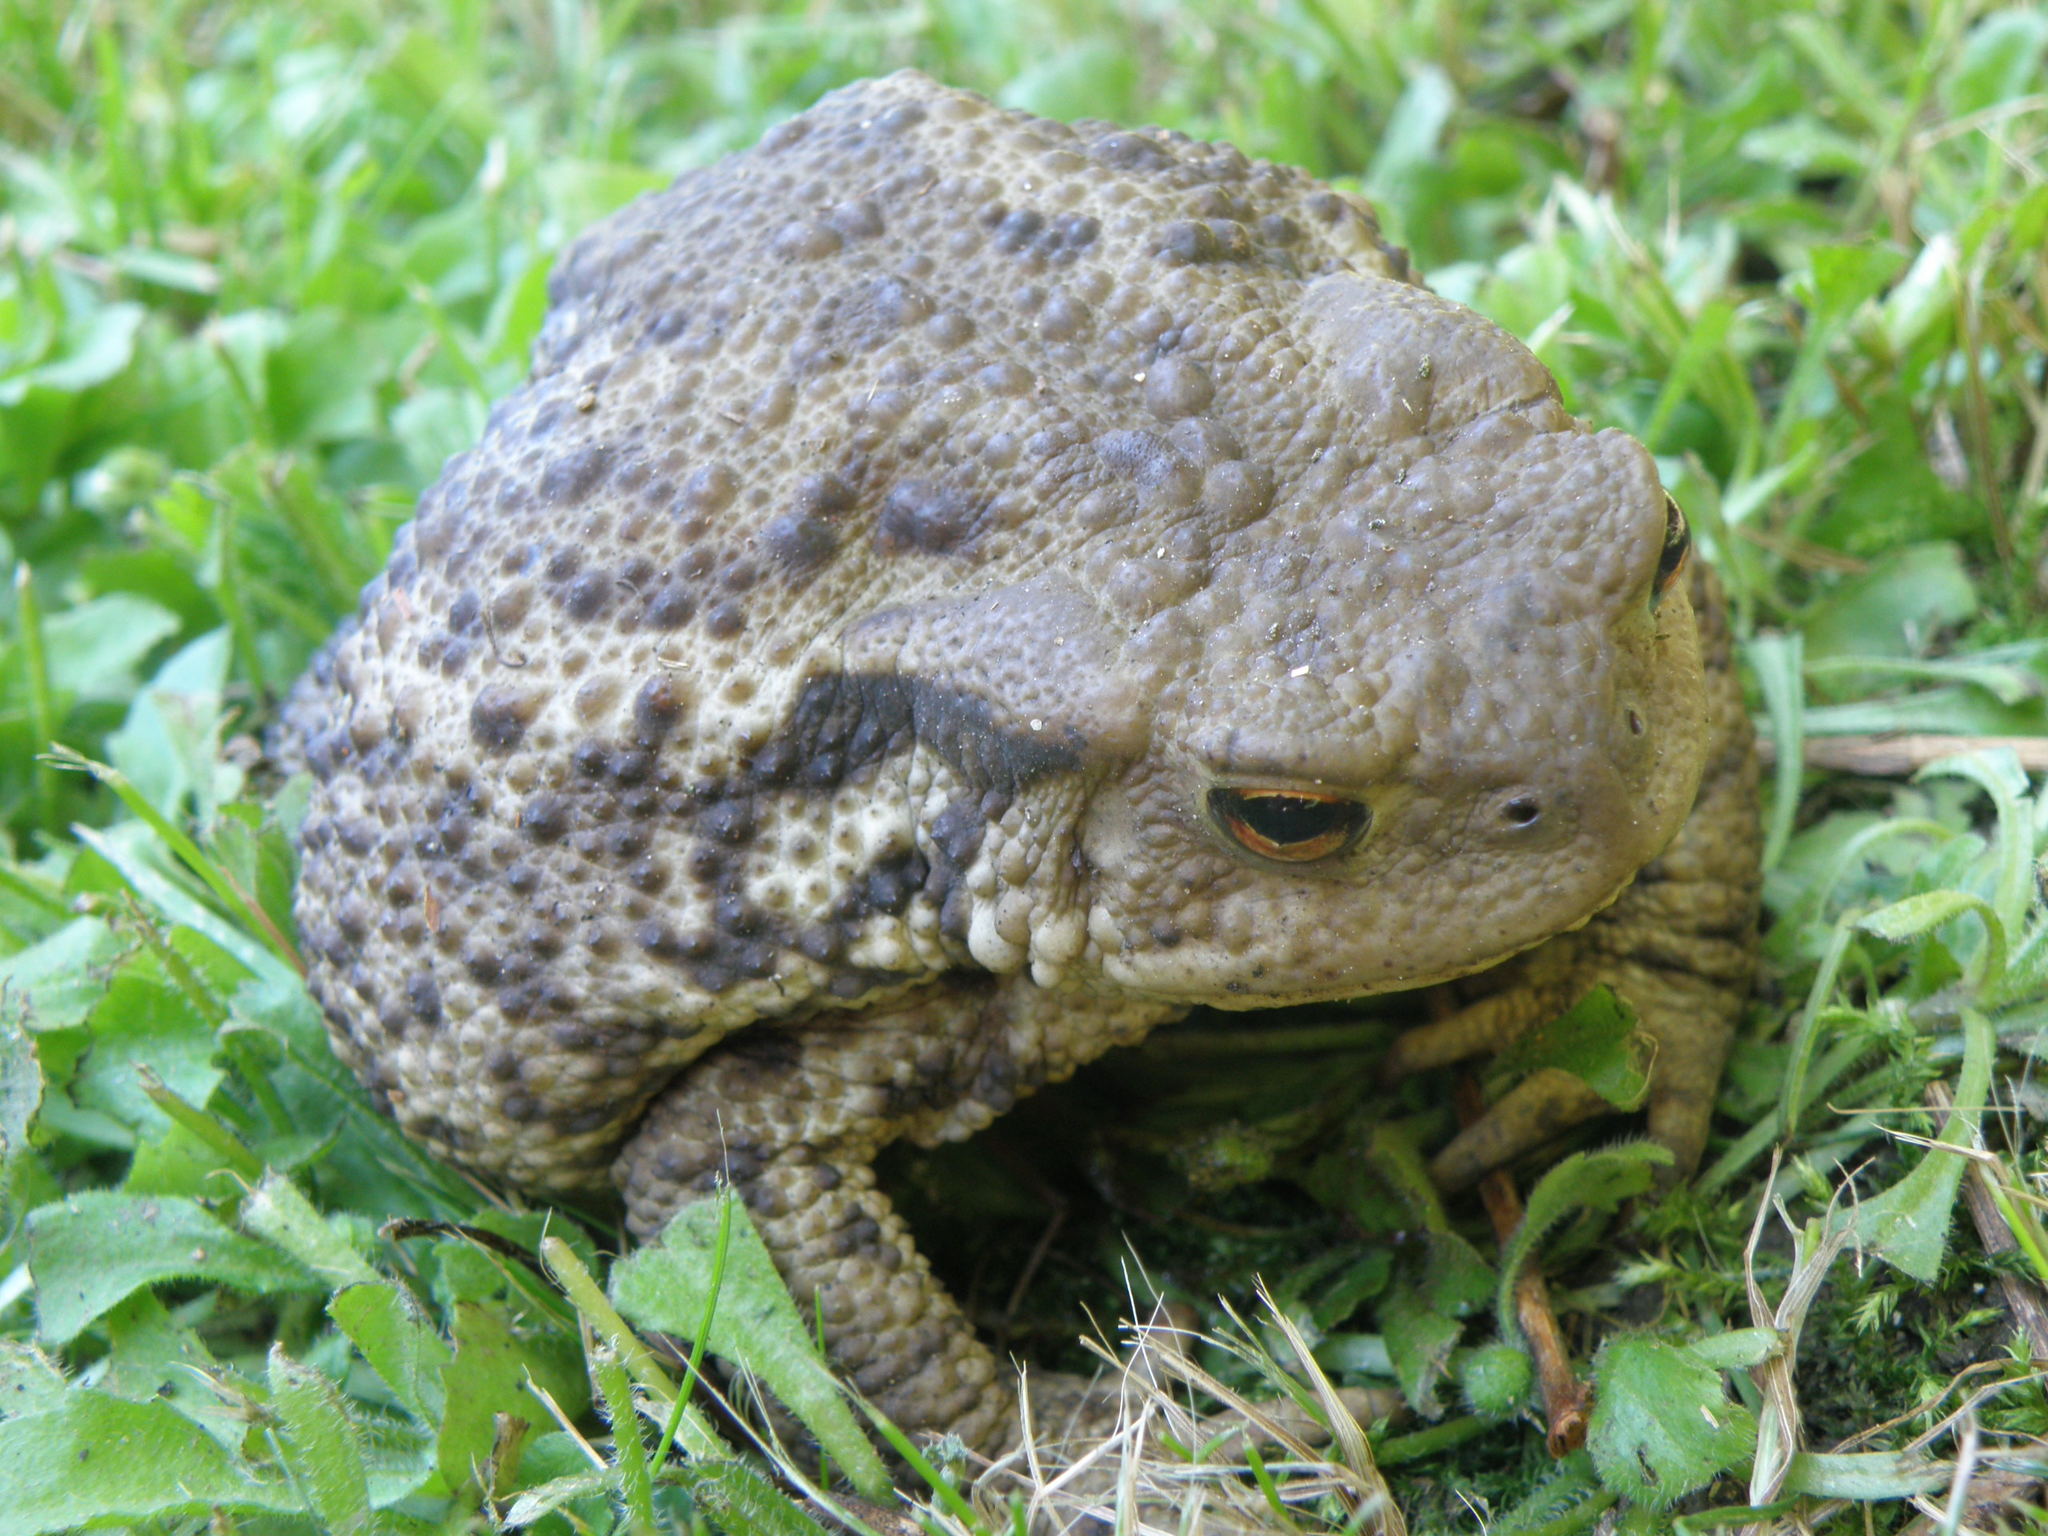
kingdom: Animalia
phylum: Chordata
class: Amphibia
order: Anura
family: Bufonidae
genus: Bufo
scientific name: Bufo bufo
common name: Common toad
